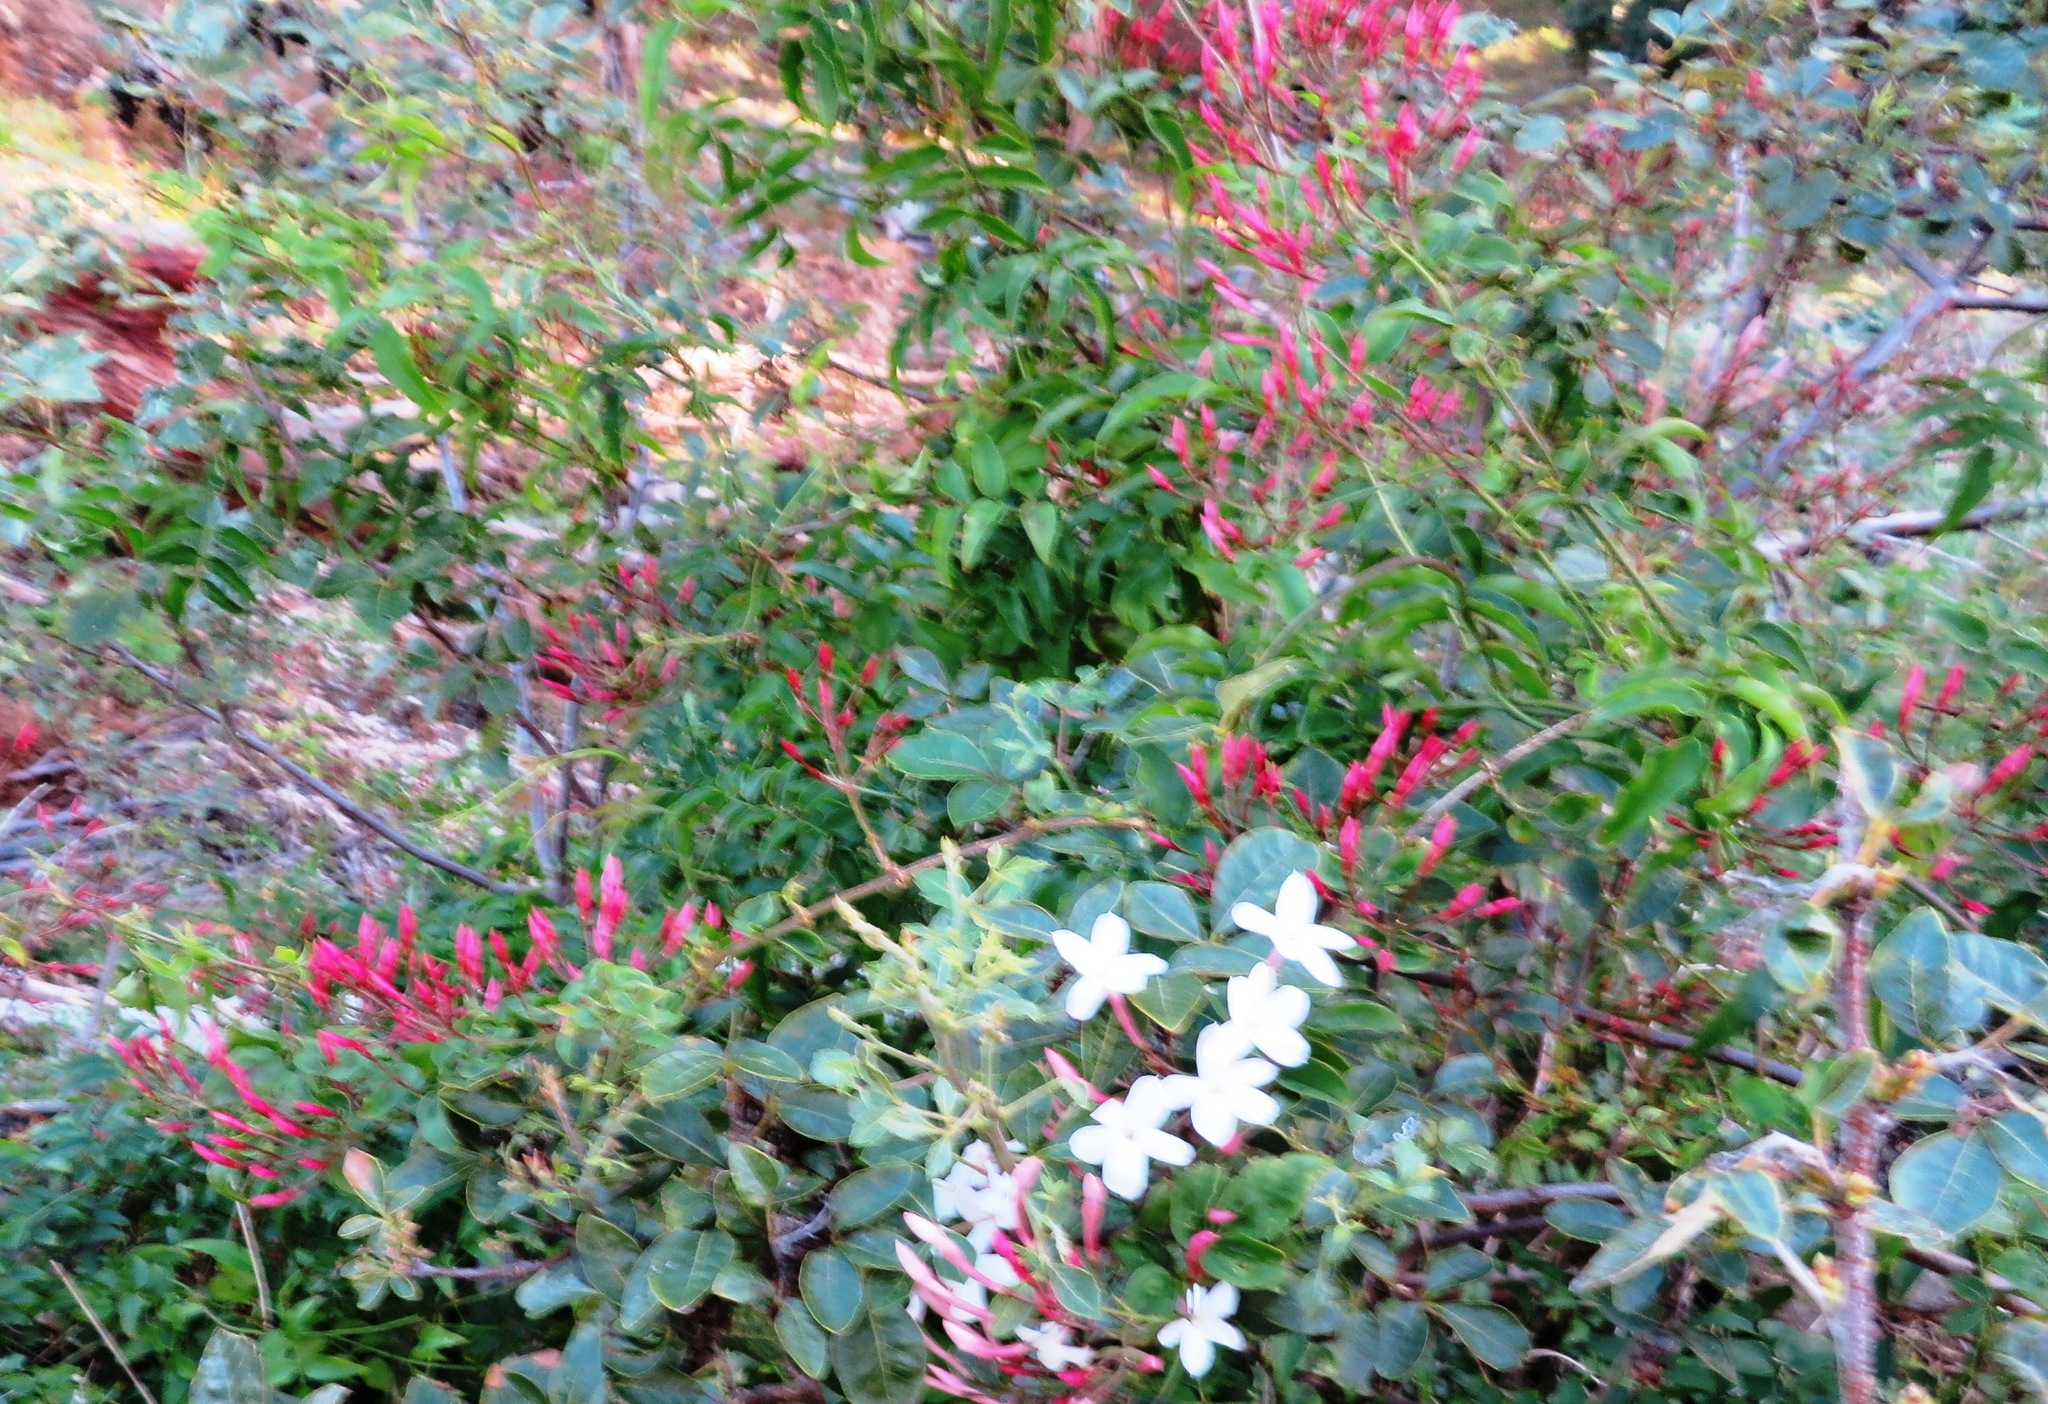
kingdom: Plantae
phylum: Tracheophyta
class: Magnoliopsida
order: Lamiales
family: Oleaceae
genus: Jasminum
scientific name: Jasminum polyanthum
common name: Pink jasmine
